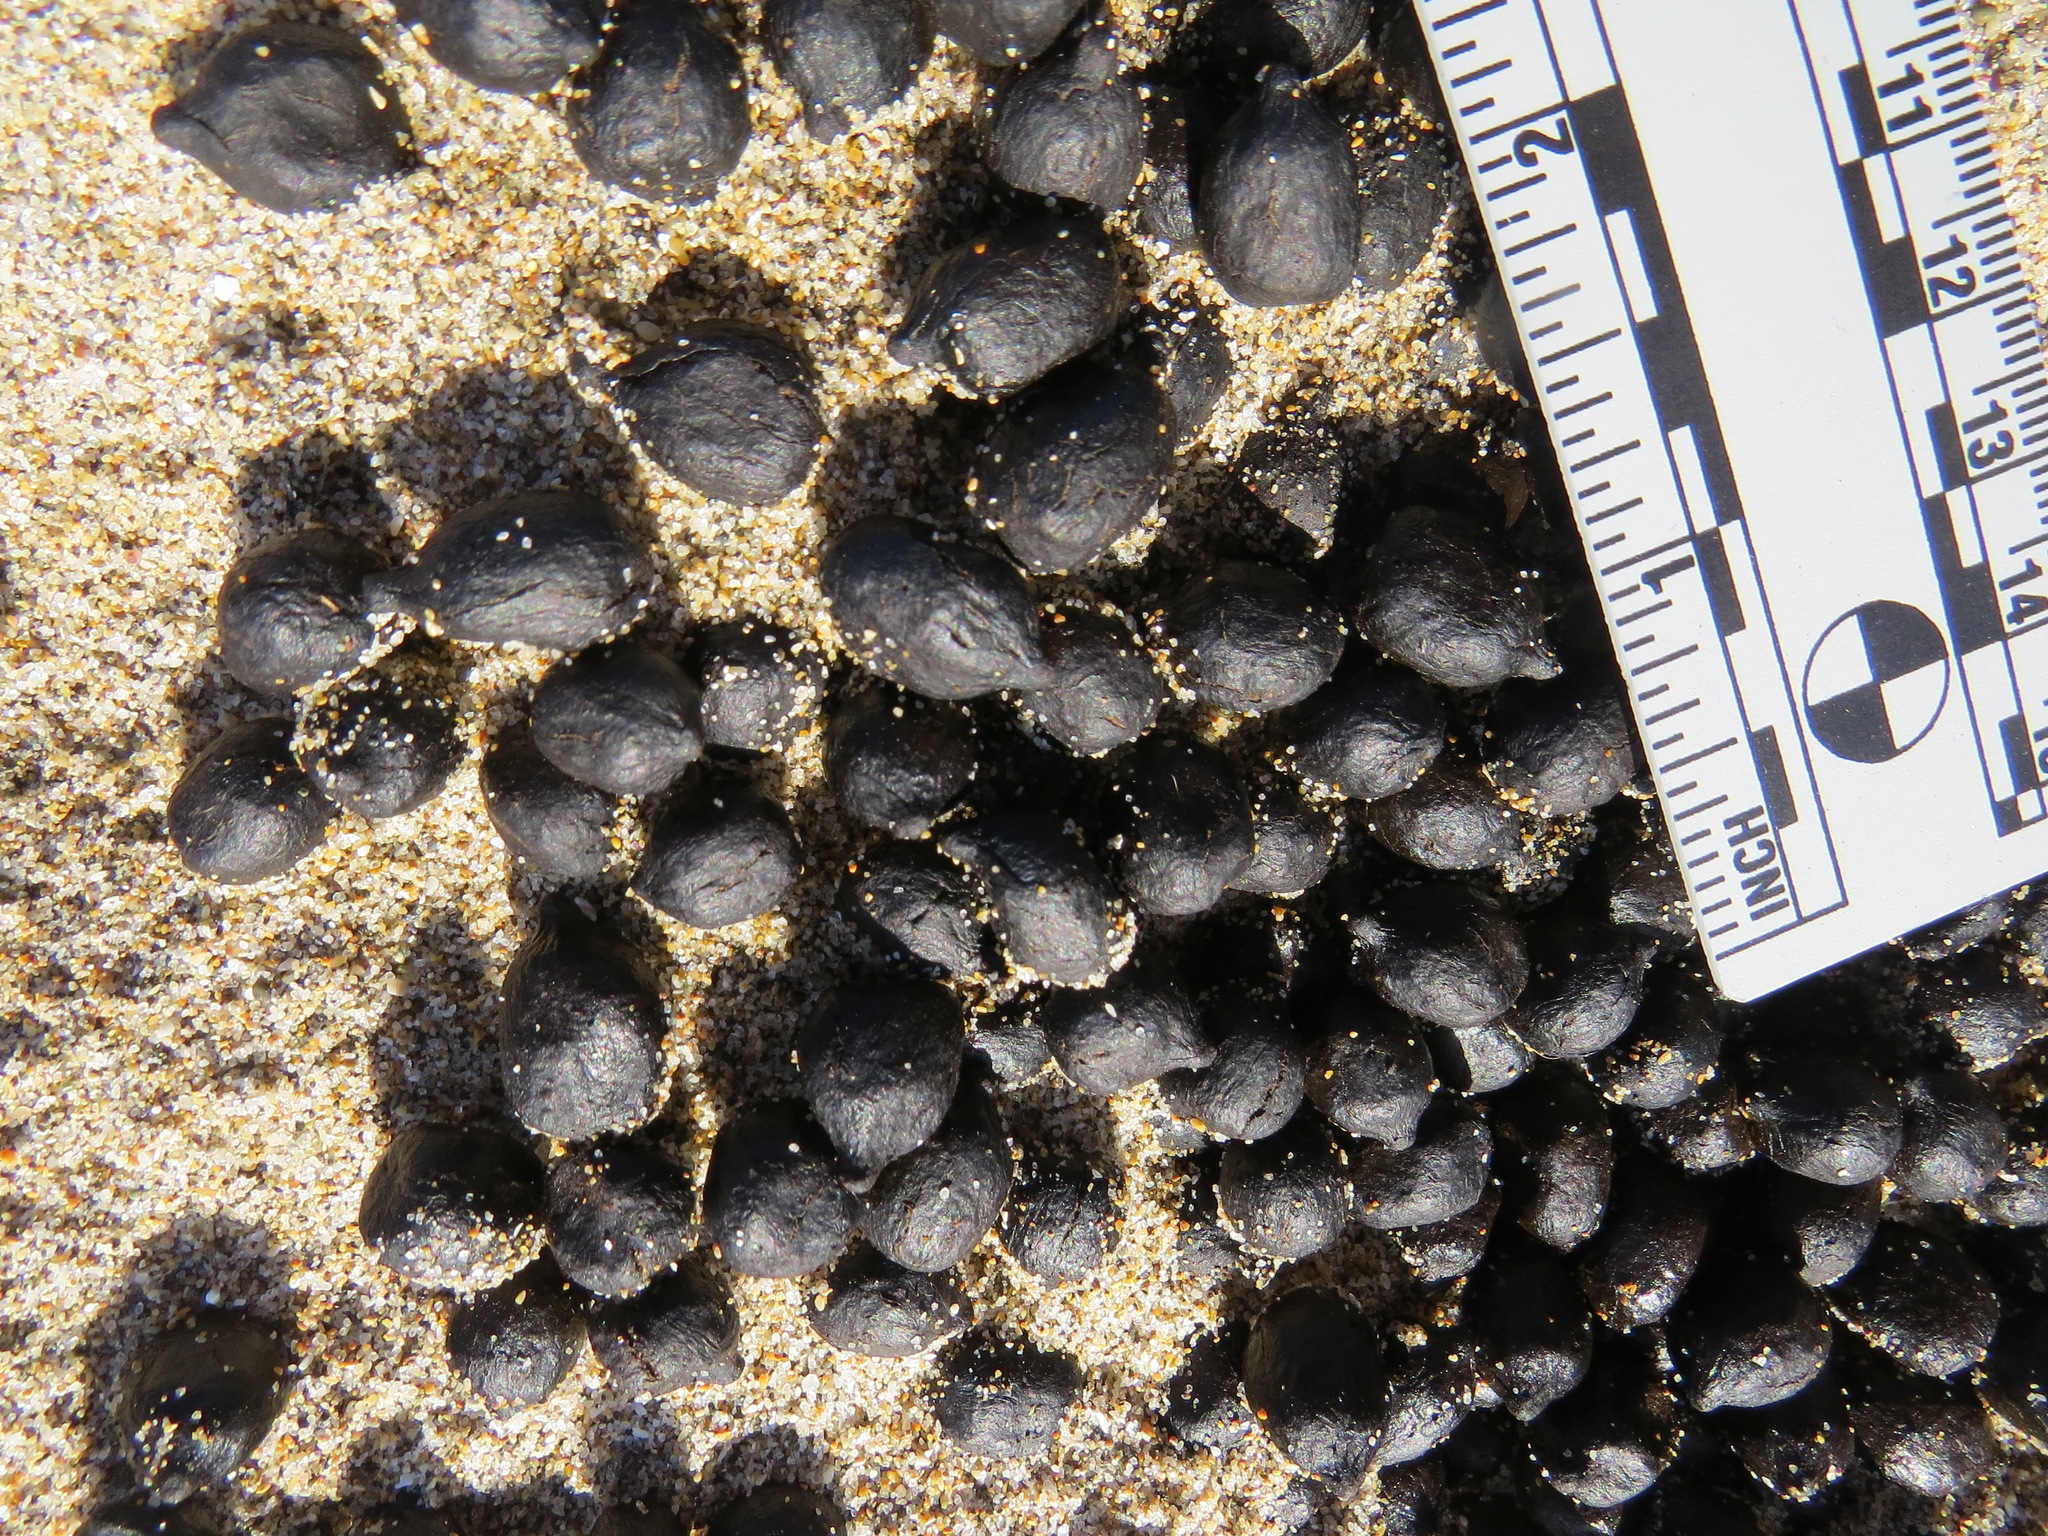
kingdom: Animalia
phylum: Chordata
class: Mammalia
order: Artiodactyla
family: Cervidae
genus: Odocoileus
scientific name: Odocoileus hemionus
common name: Mule deer
